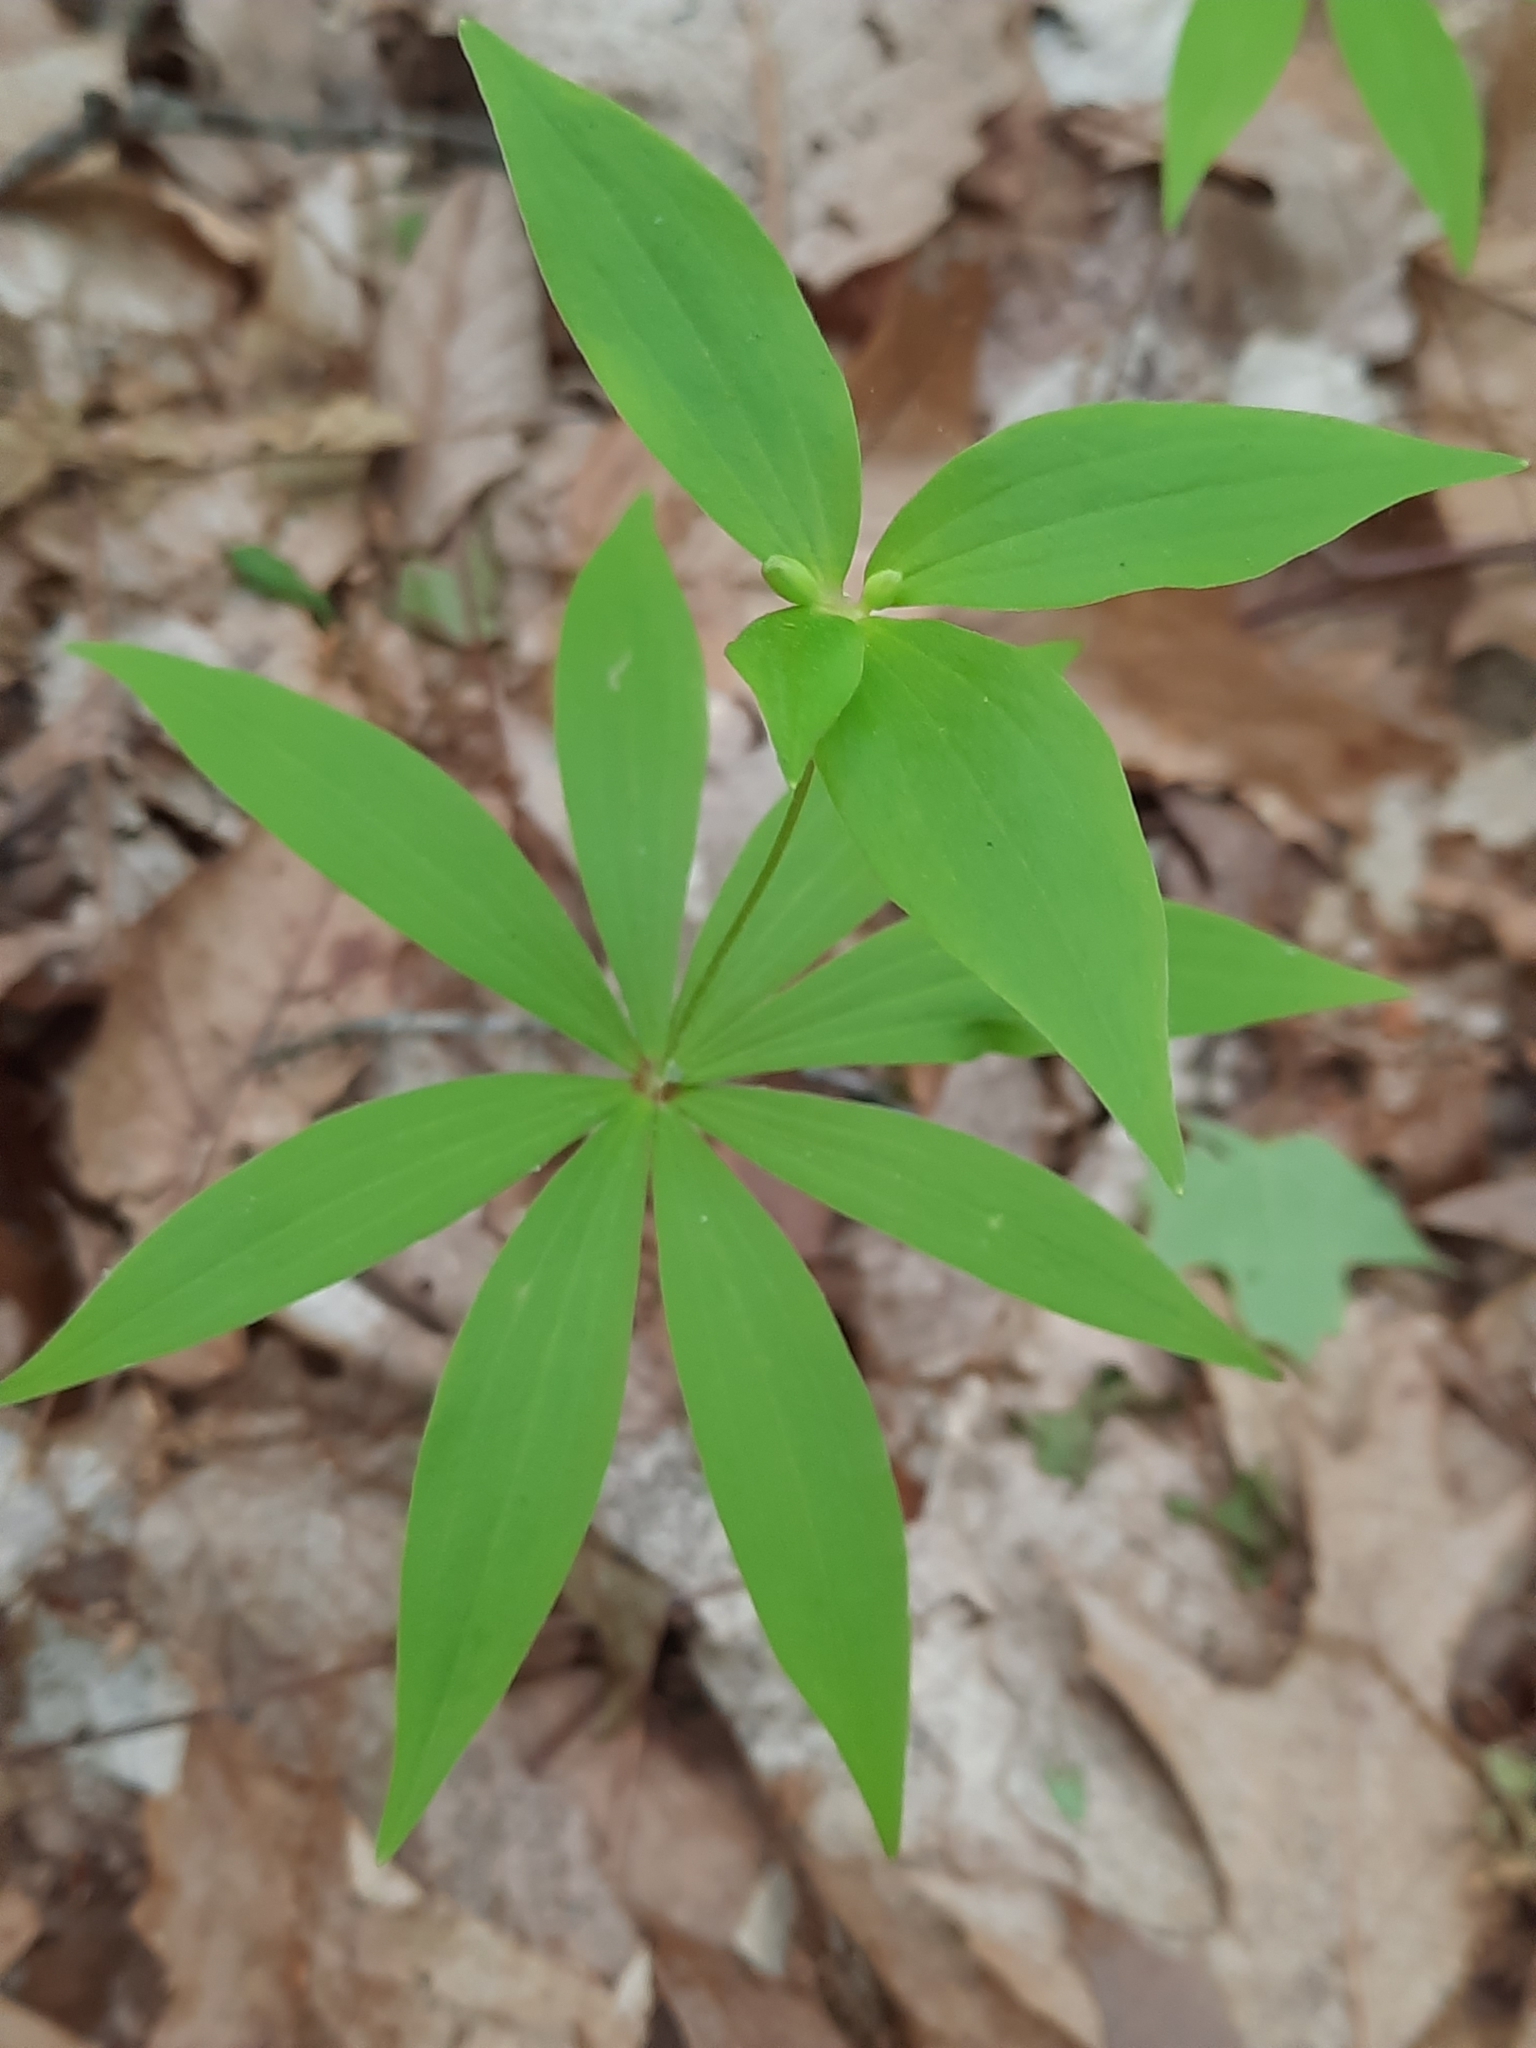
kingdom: Plantae
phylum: Tracheophyta
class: Liliopsida
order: Liliales
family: Liliaceae
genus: Medeola
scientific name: Medeola virginiana
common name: Indian cucumber-root
